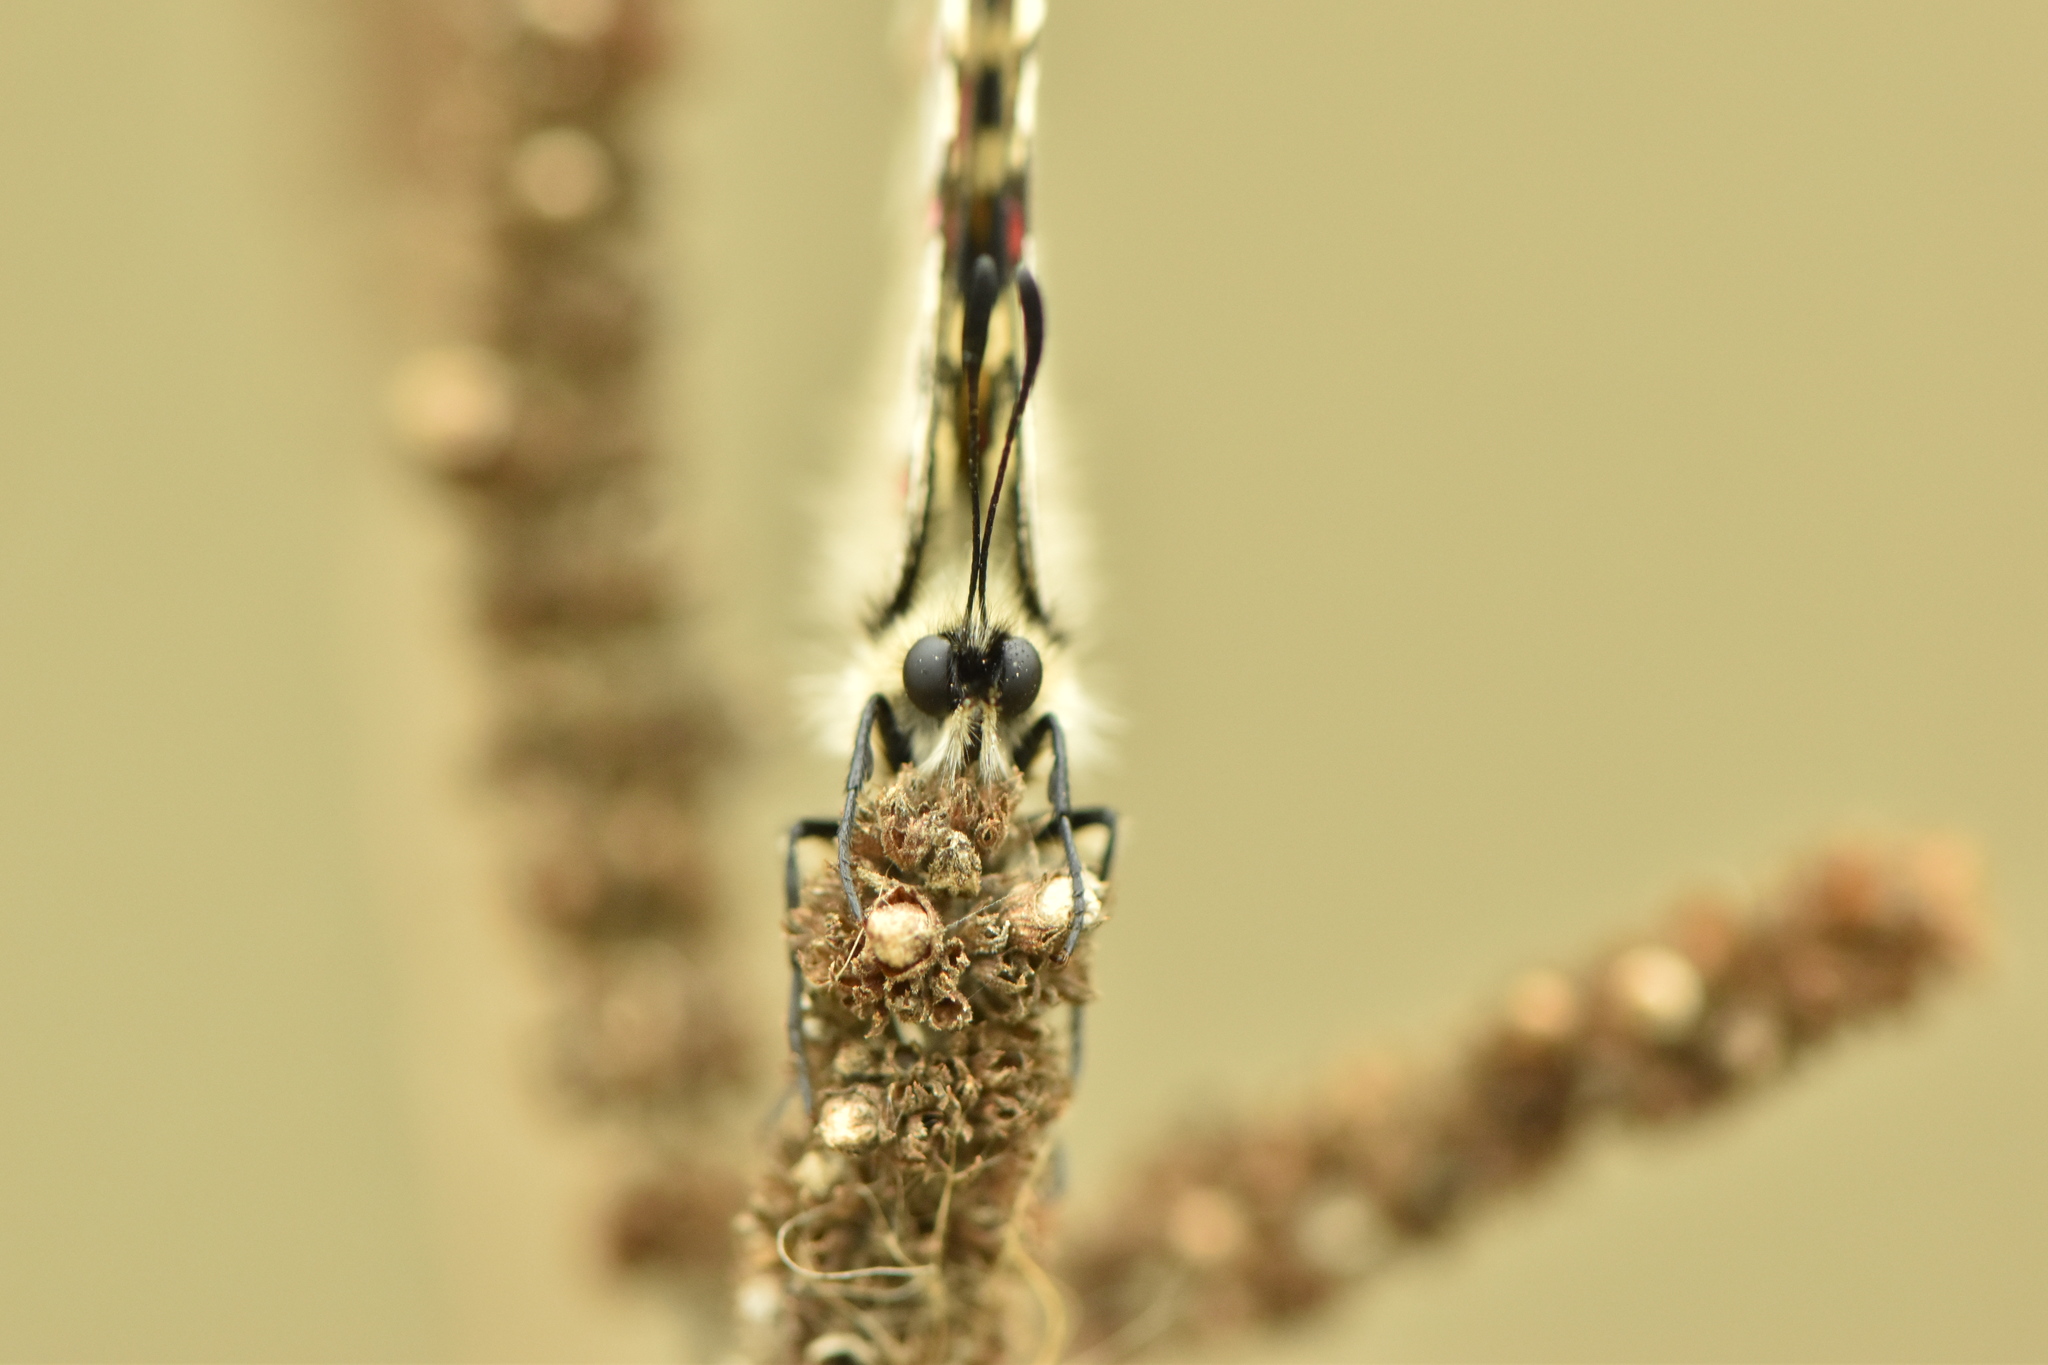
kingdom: Animalia
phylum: Arthropoda
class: Insecta
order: Lepidoptera
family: Papilionidae
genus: Zerynthia
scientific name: Zerynthia rumina
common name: Spanish festoon
